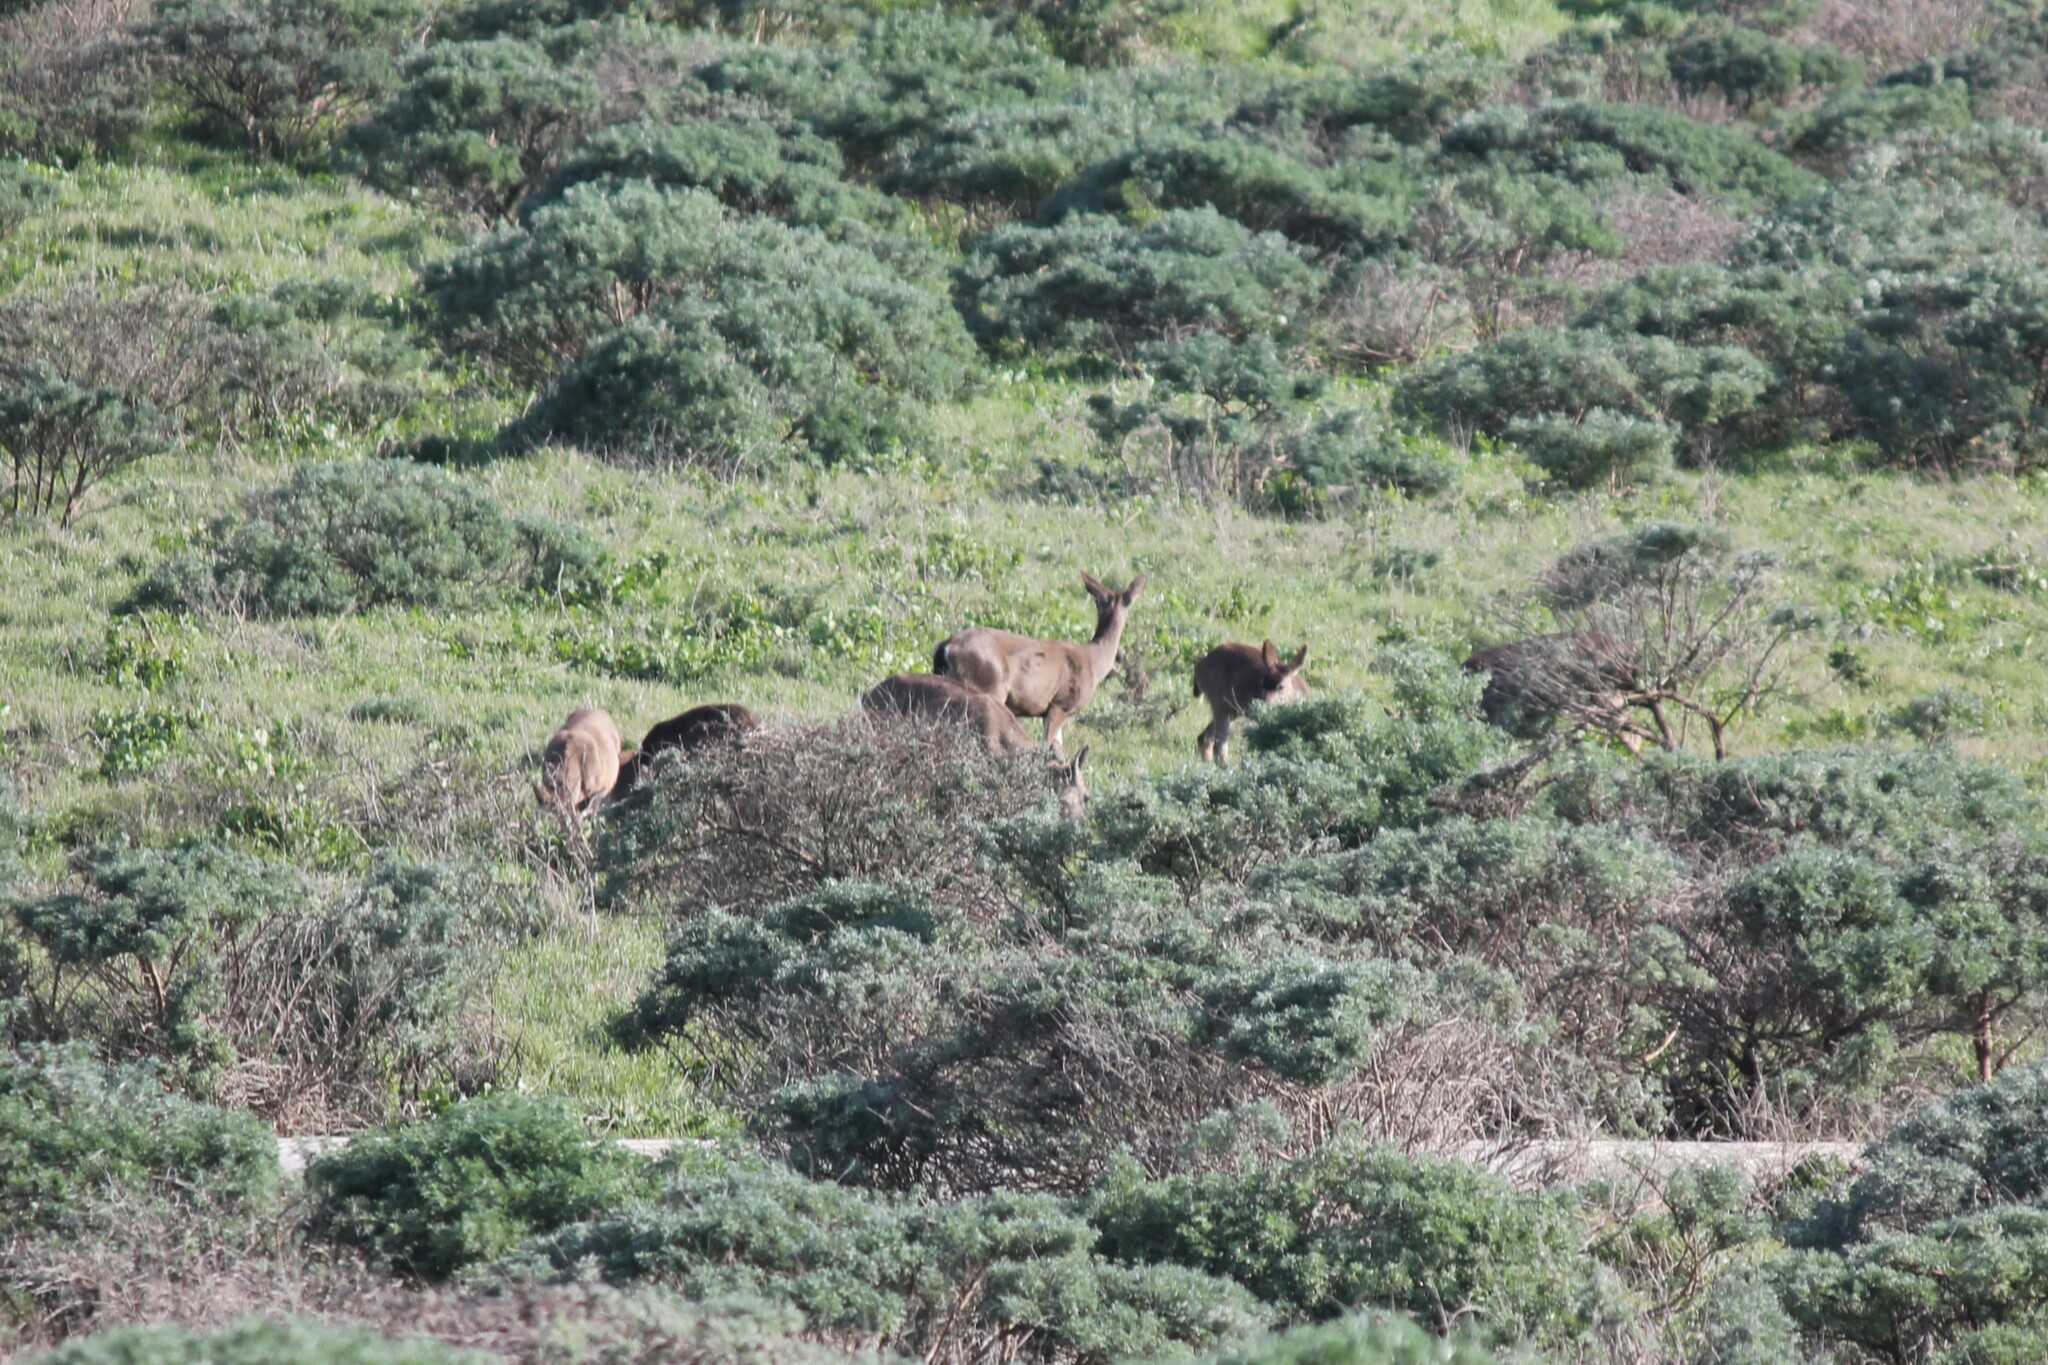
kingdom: Animalia
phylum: Chordata
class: Mammalia
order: Artiodactyla
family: Cervidae
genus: Odocoileus
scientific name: Odocoileus hemionus
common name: Mule deer
